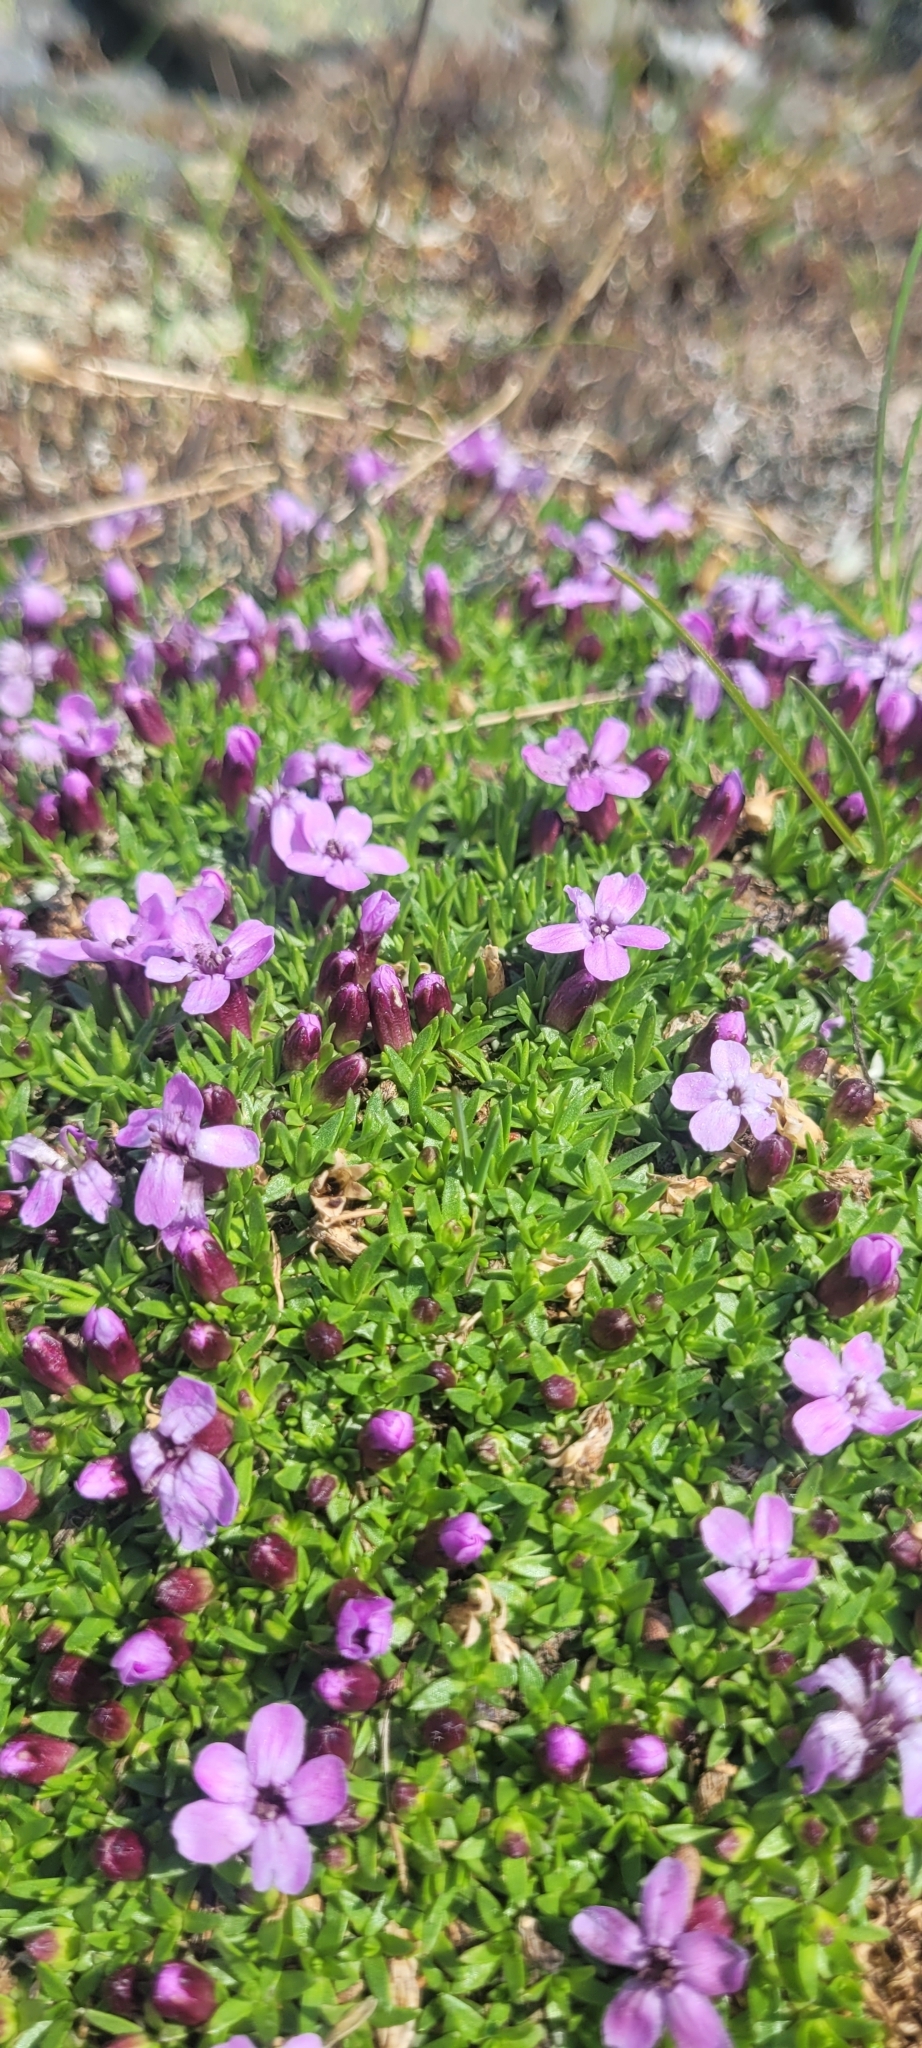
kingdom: Plantae
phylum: Tracheophyta
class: Magnoliopsida
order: Caryophyllales
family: Caryophyllaceae
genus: Silene
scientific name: Silene acaulis
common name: Moss campion
